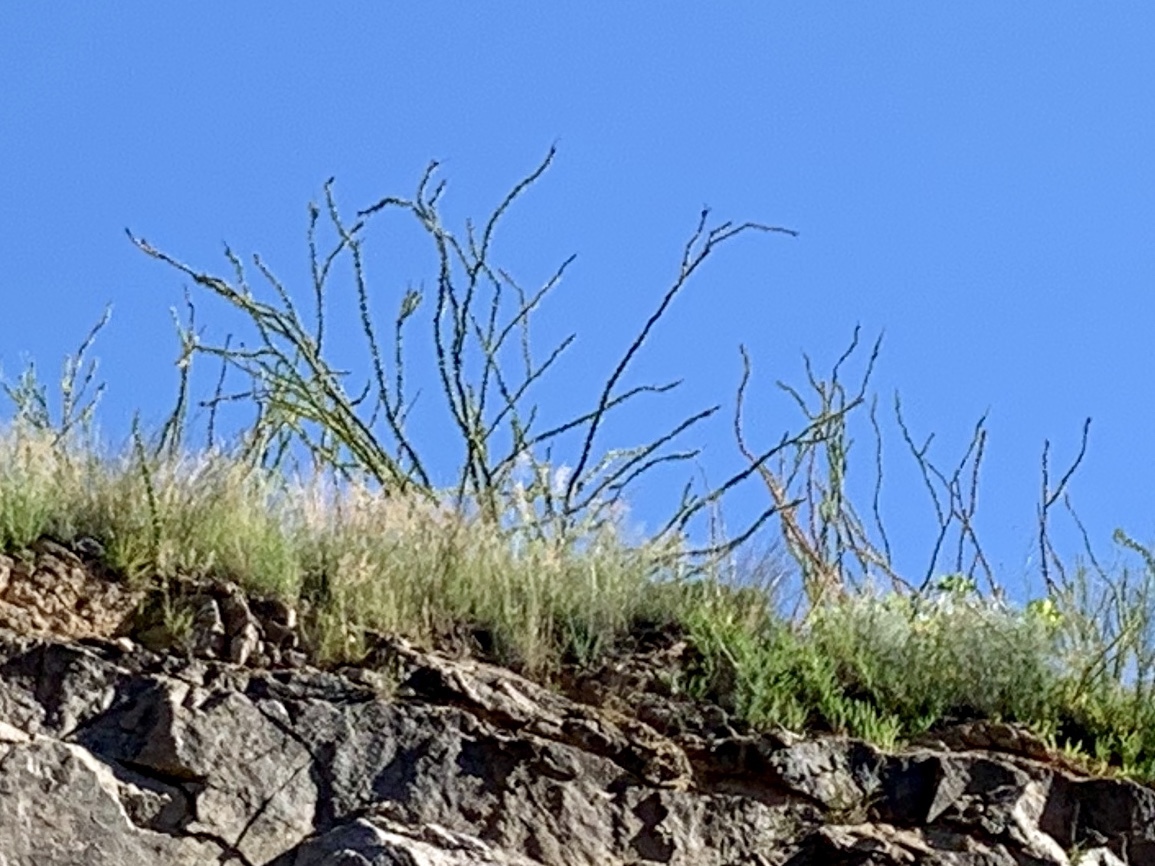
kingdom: Plantae
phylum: Tracheophyta
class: Magnoliopsida
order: Ericales
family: Fouquieriaceae
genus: Fouquieria
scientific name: Fouquieria splendens
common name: Vine-cactus
